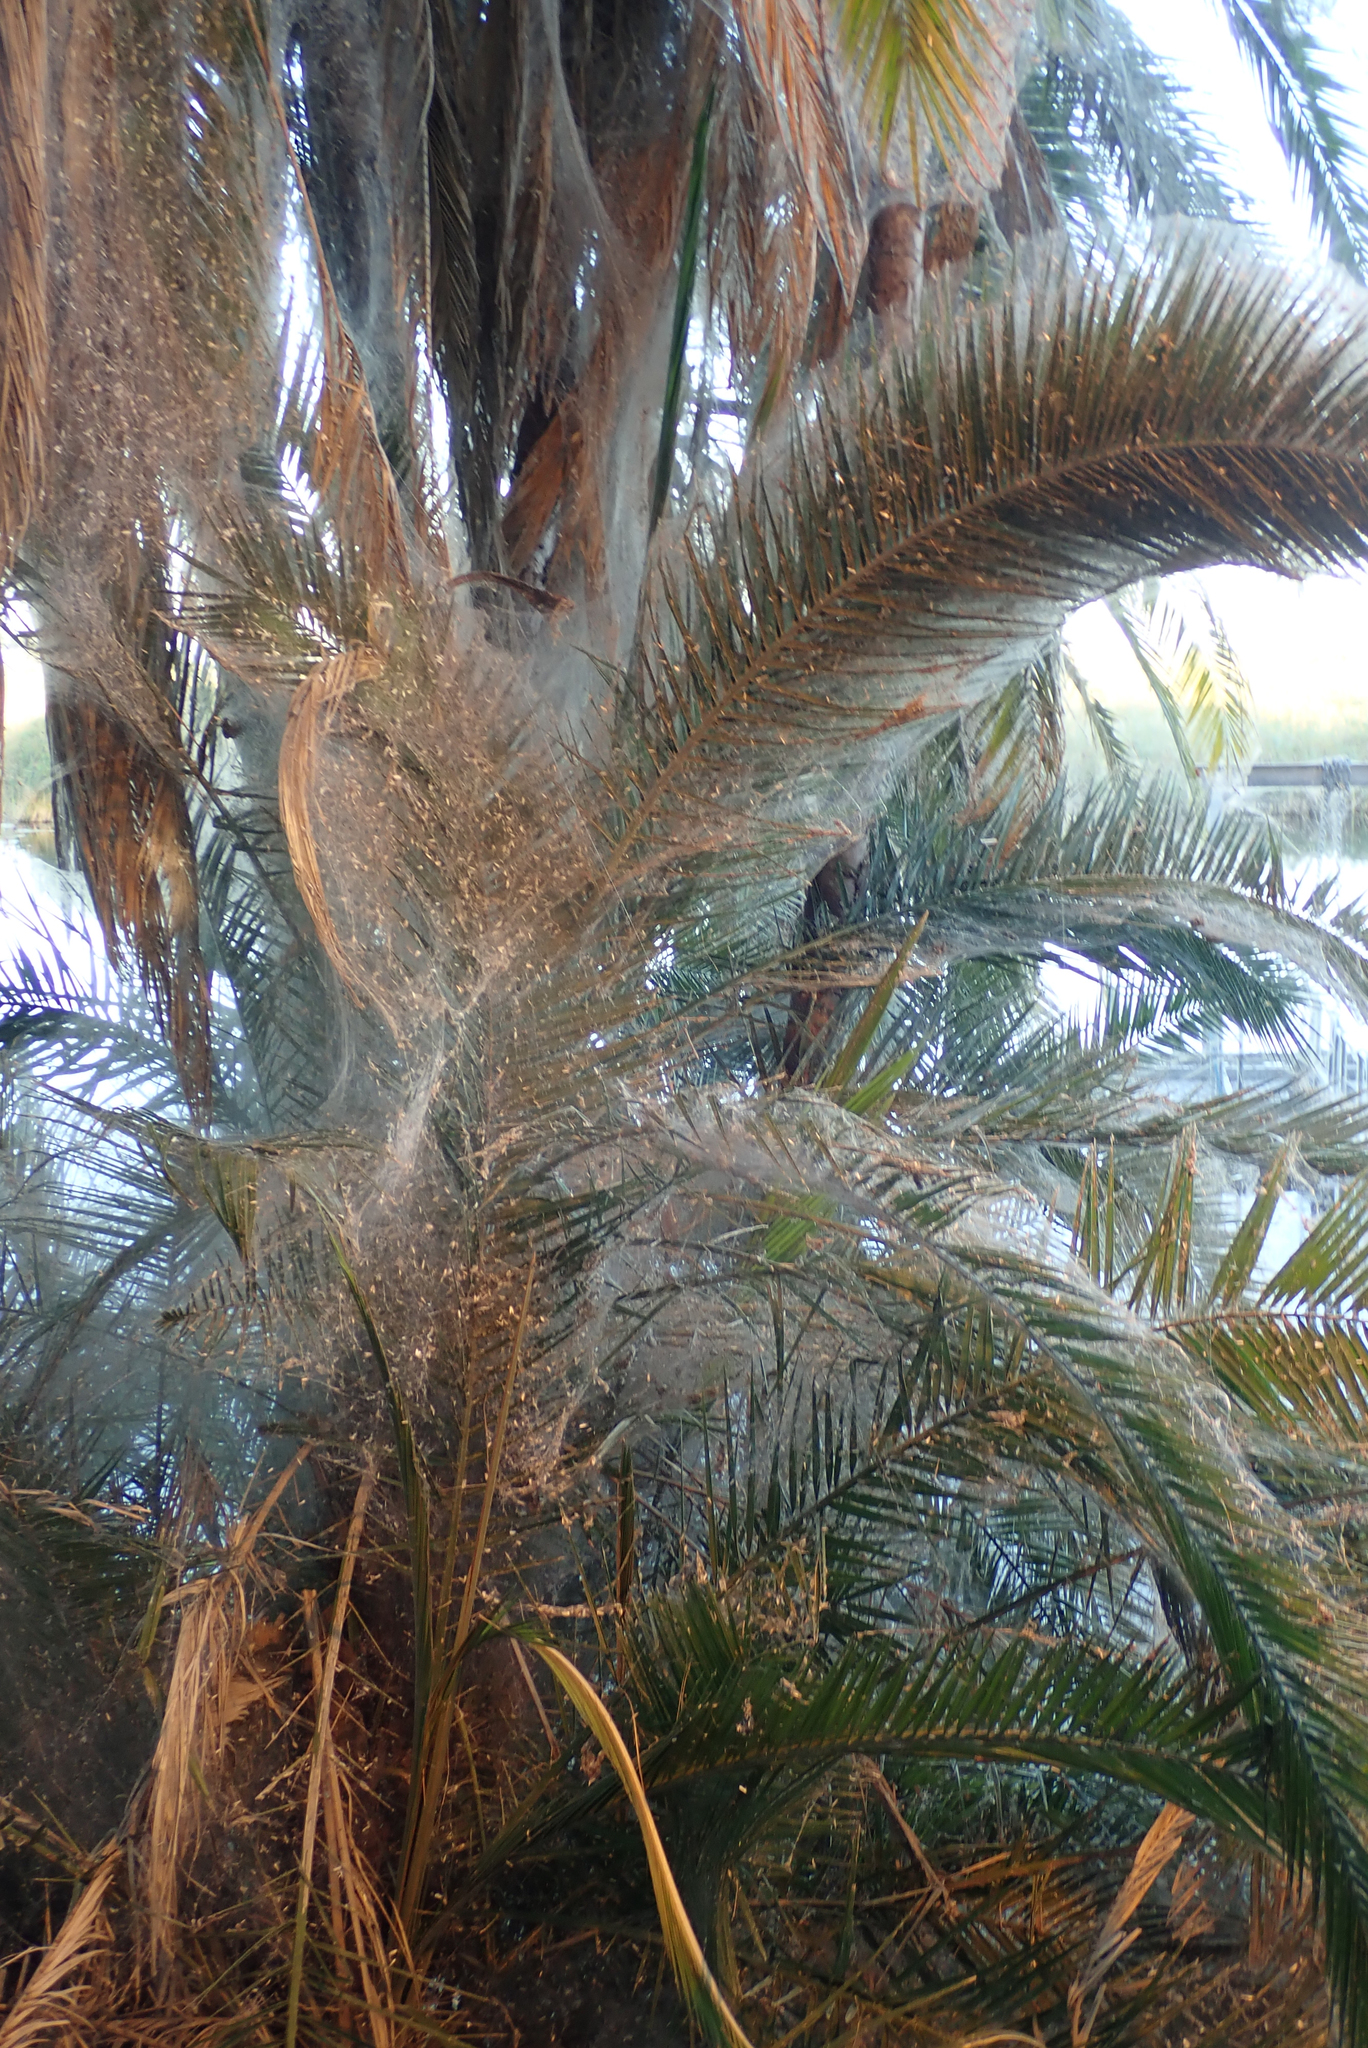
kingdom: Plantae
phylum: Tracheophyta
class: Liliopsida
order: Arecales
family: Arecaceae
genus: Phoenix
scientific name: Phoenix reclinata
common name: Senegal date palm
